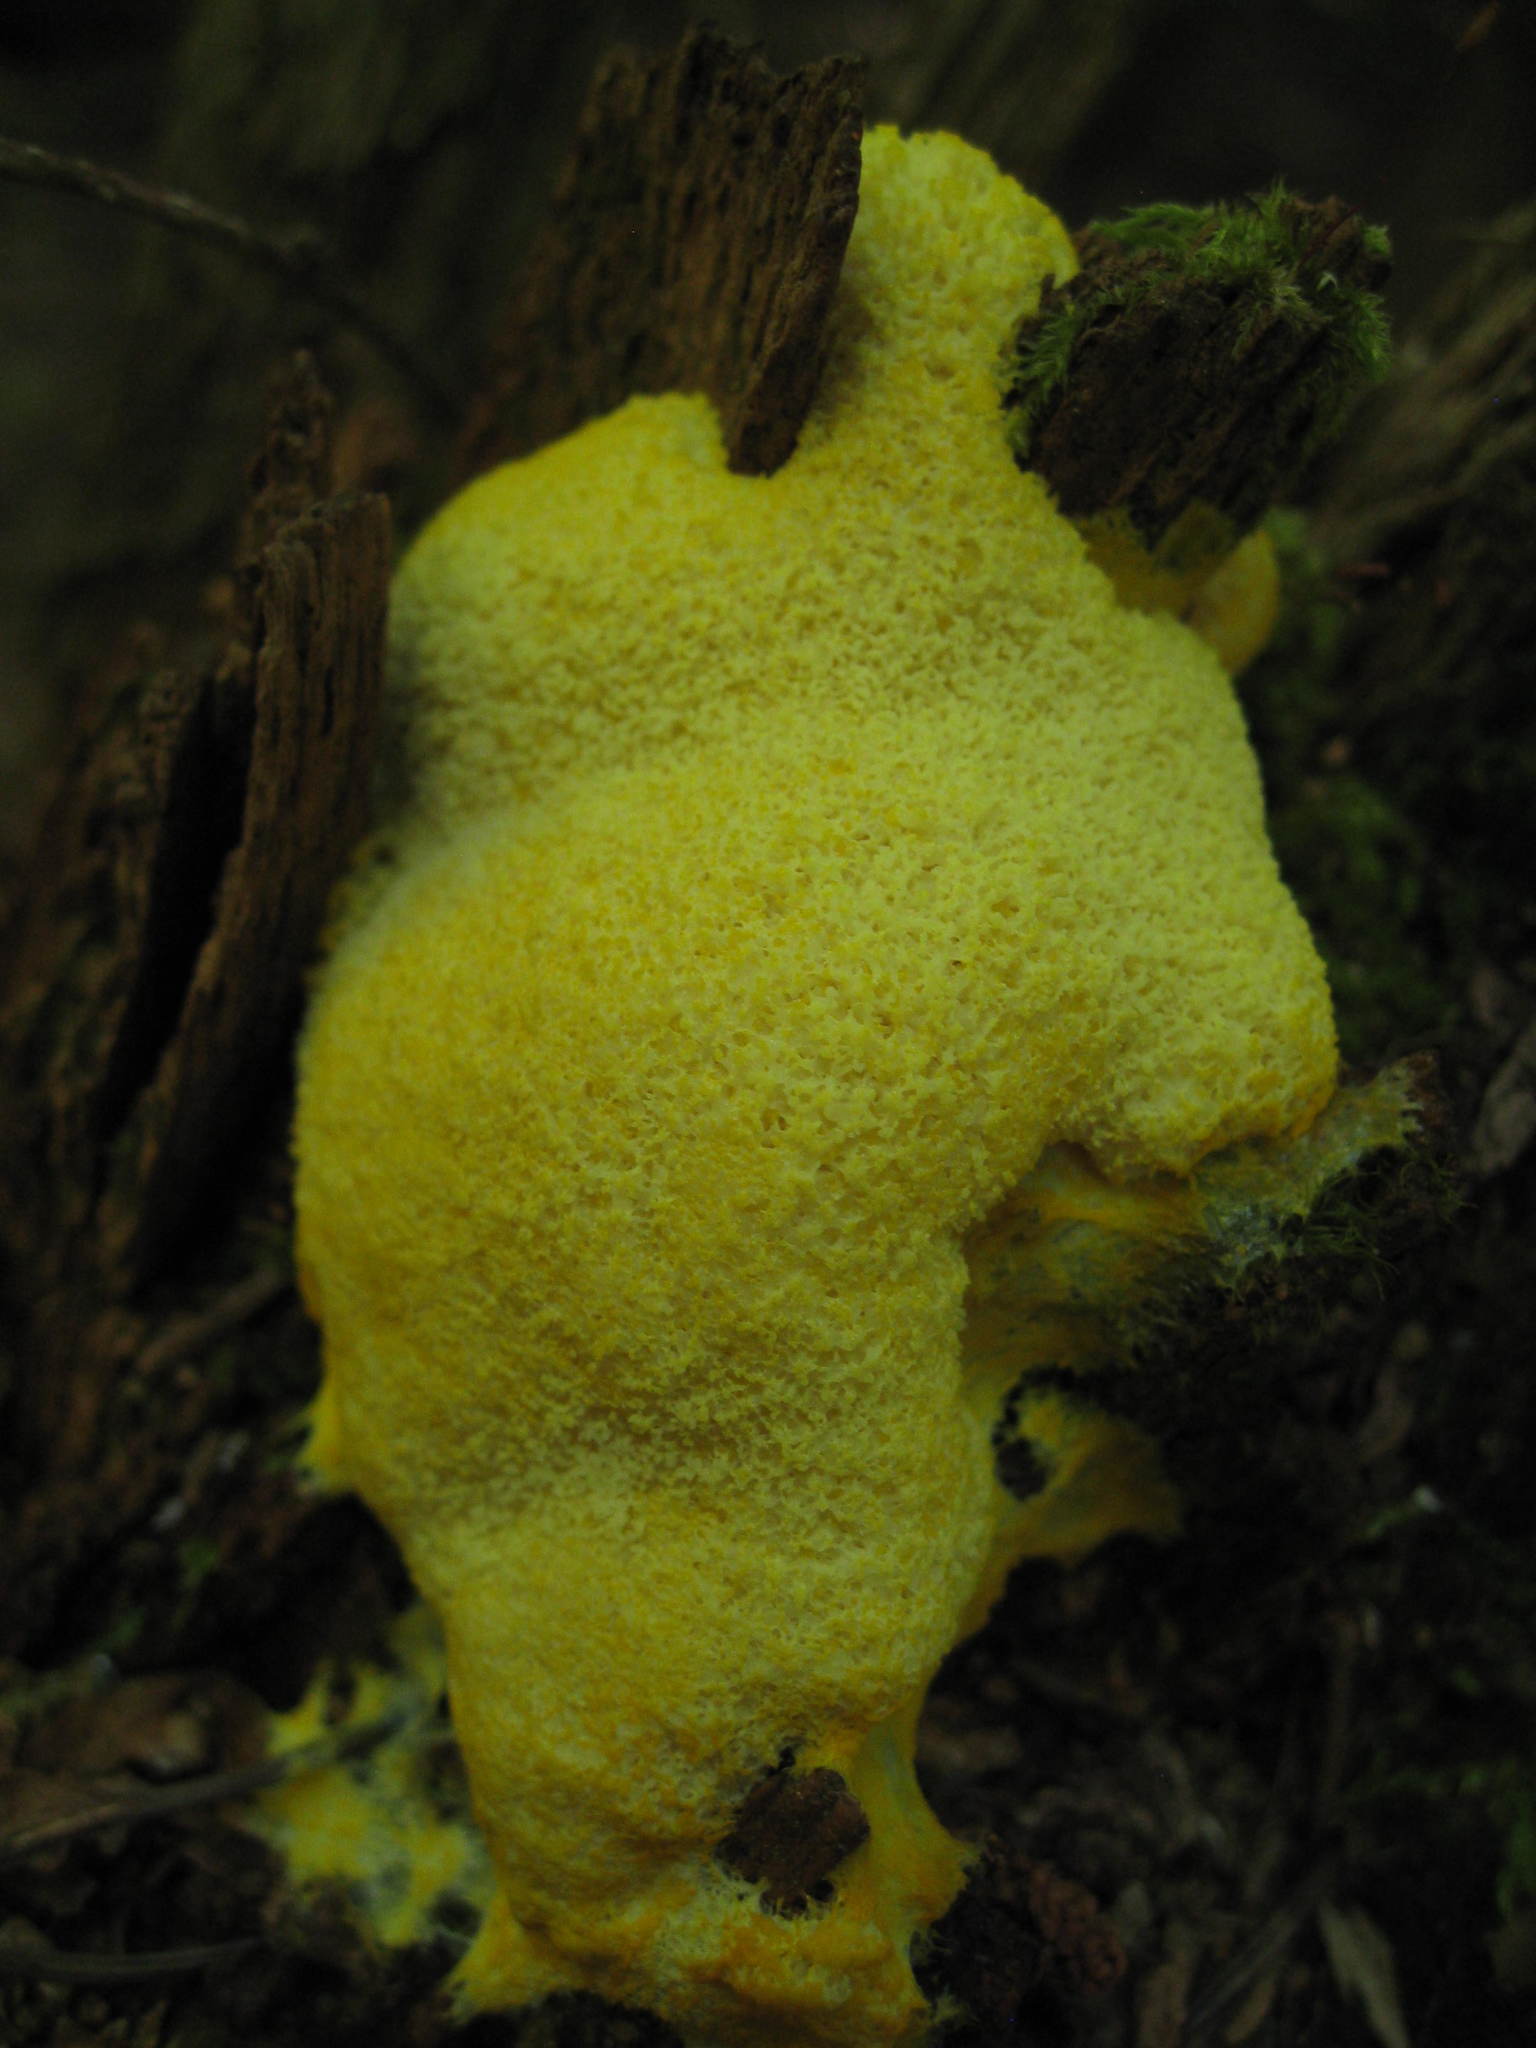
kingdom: Protozoa
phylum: Mycetozoa
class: Myxomycetes
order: Physarales
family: Physaraceae
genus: Fuligo
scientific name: Fuligo septica
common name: Dog vomit slime mold
